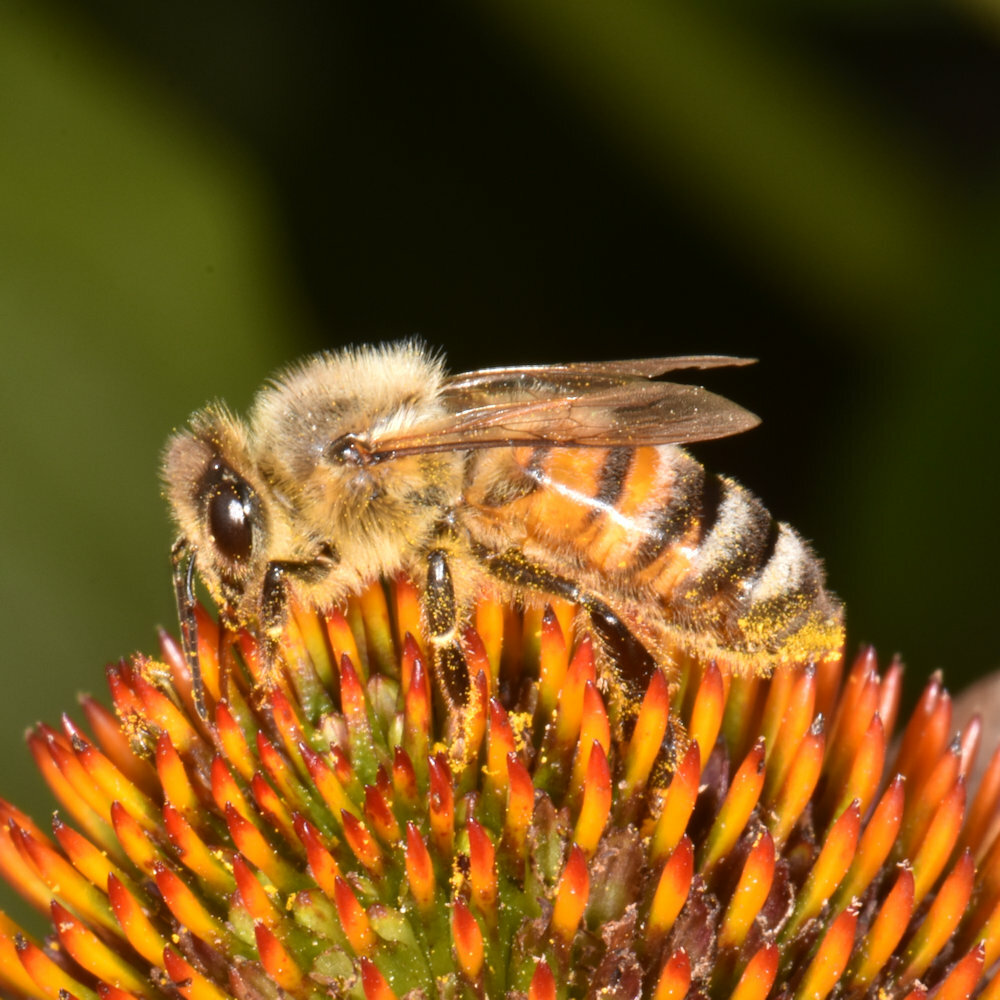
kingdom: Animalia
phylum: Arthropoda
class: Insecta
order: Hymenoptera
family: Apidae
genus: Apis
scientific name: Apis mellifera
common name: Honey bee
